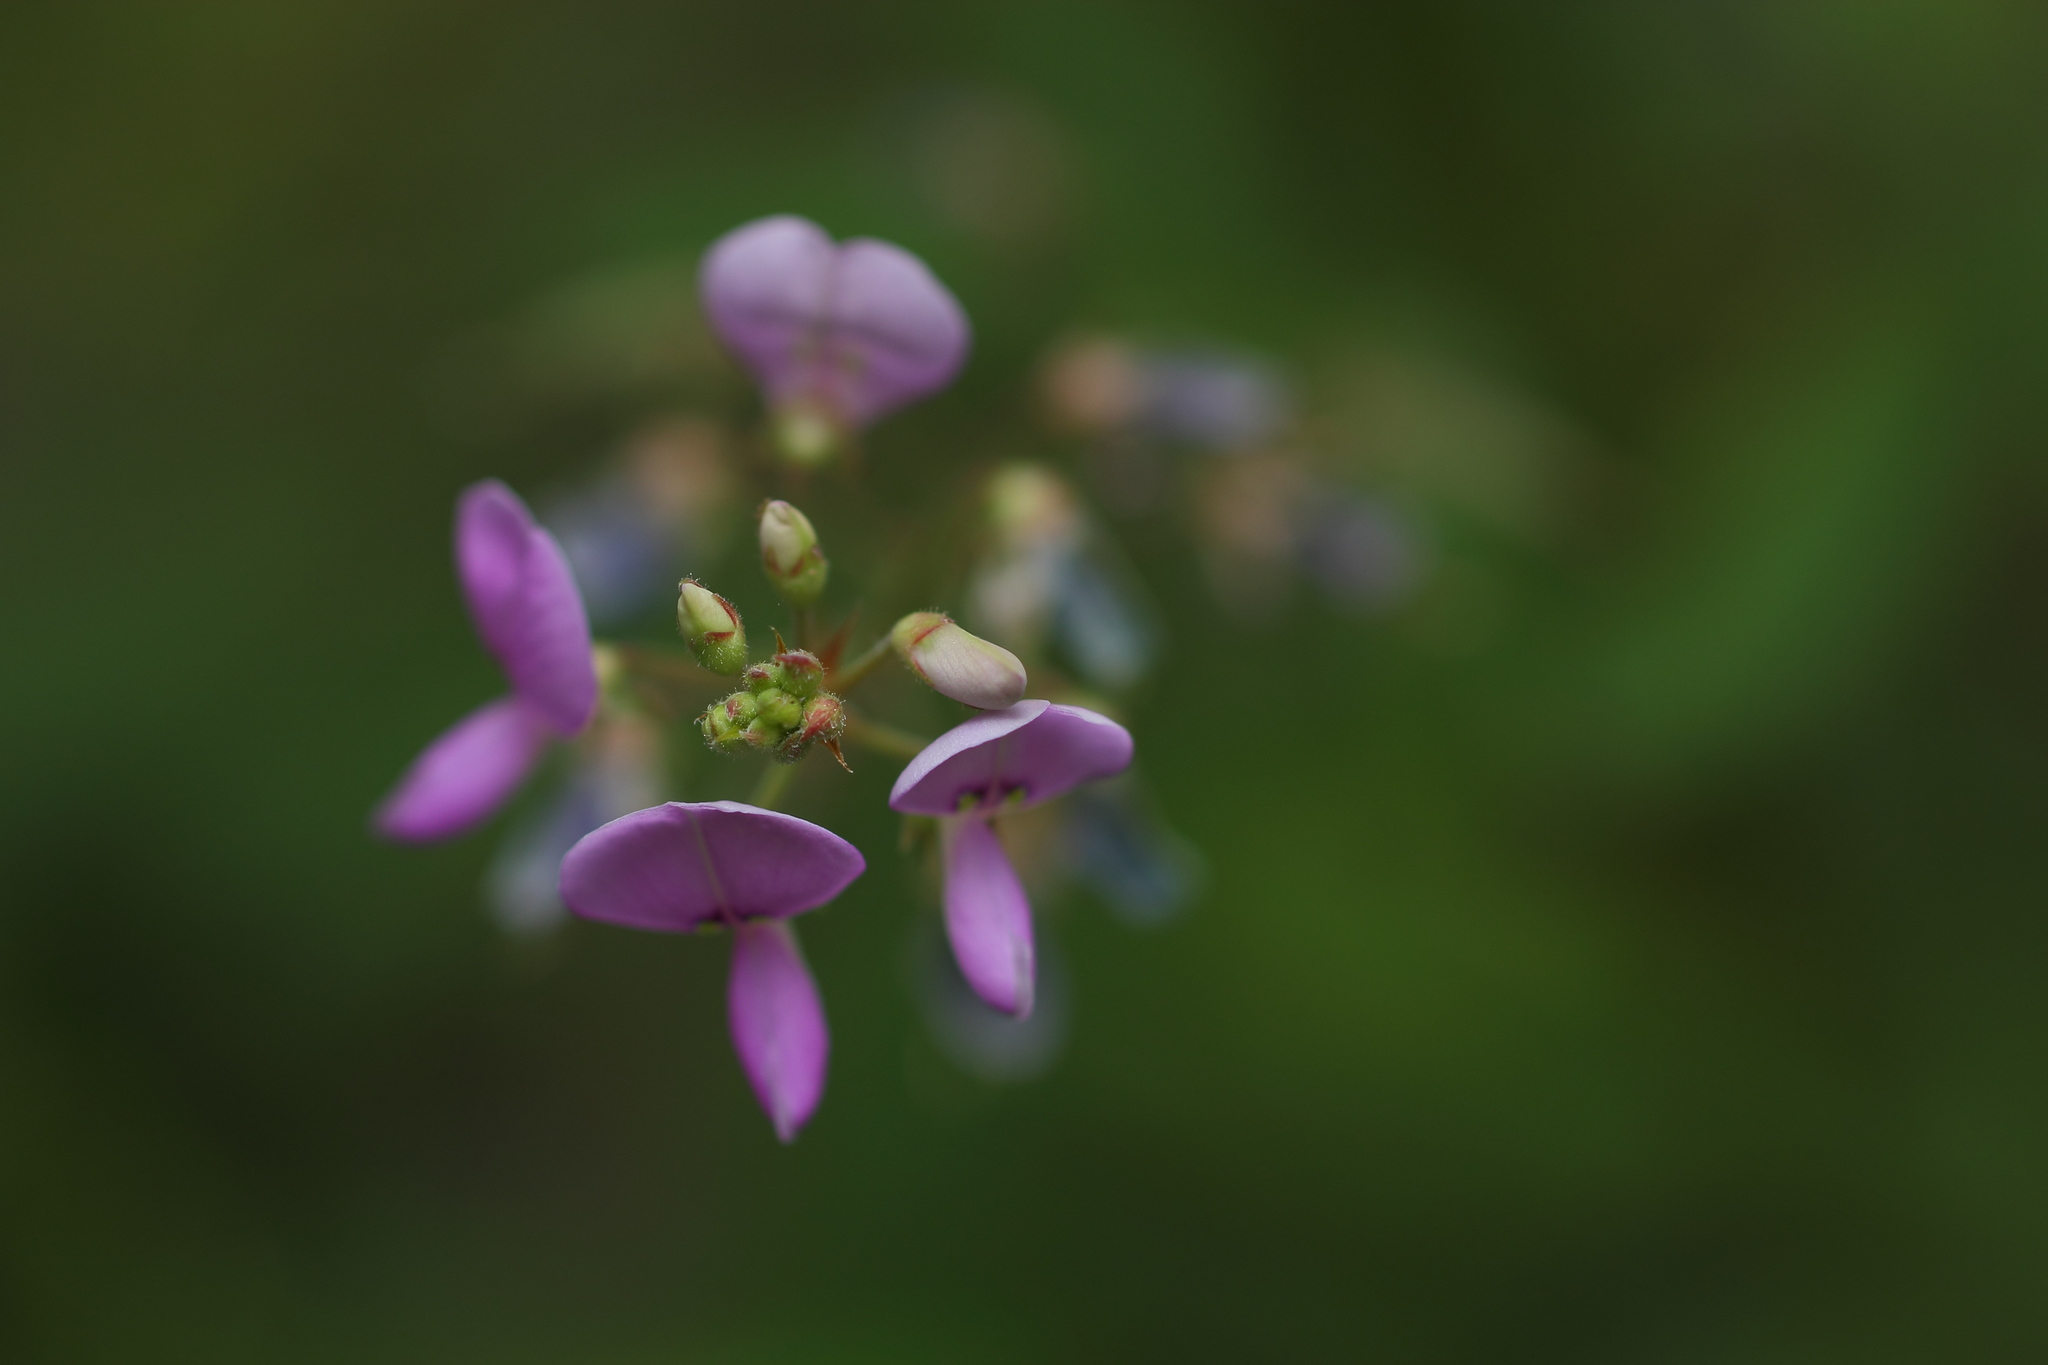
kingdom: Plantae
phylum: Tracheophyta
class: Magnoliopsida
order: Fabales
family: Fabaceae
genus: Desmodium
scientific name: Desmodium paniculatum
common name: Panicled tick-clover
